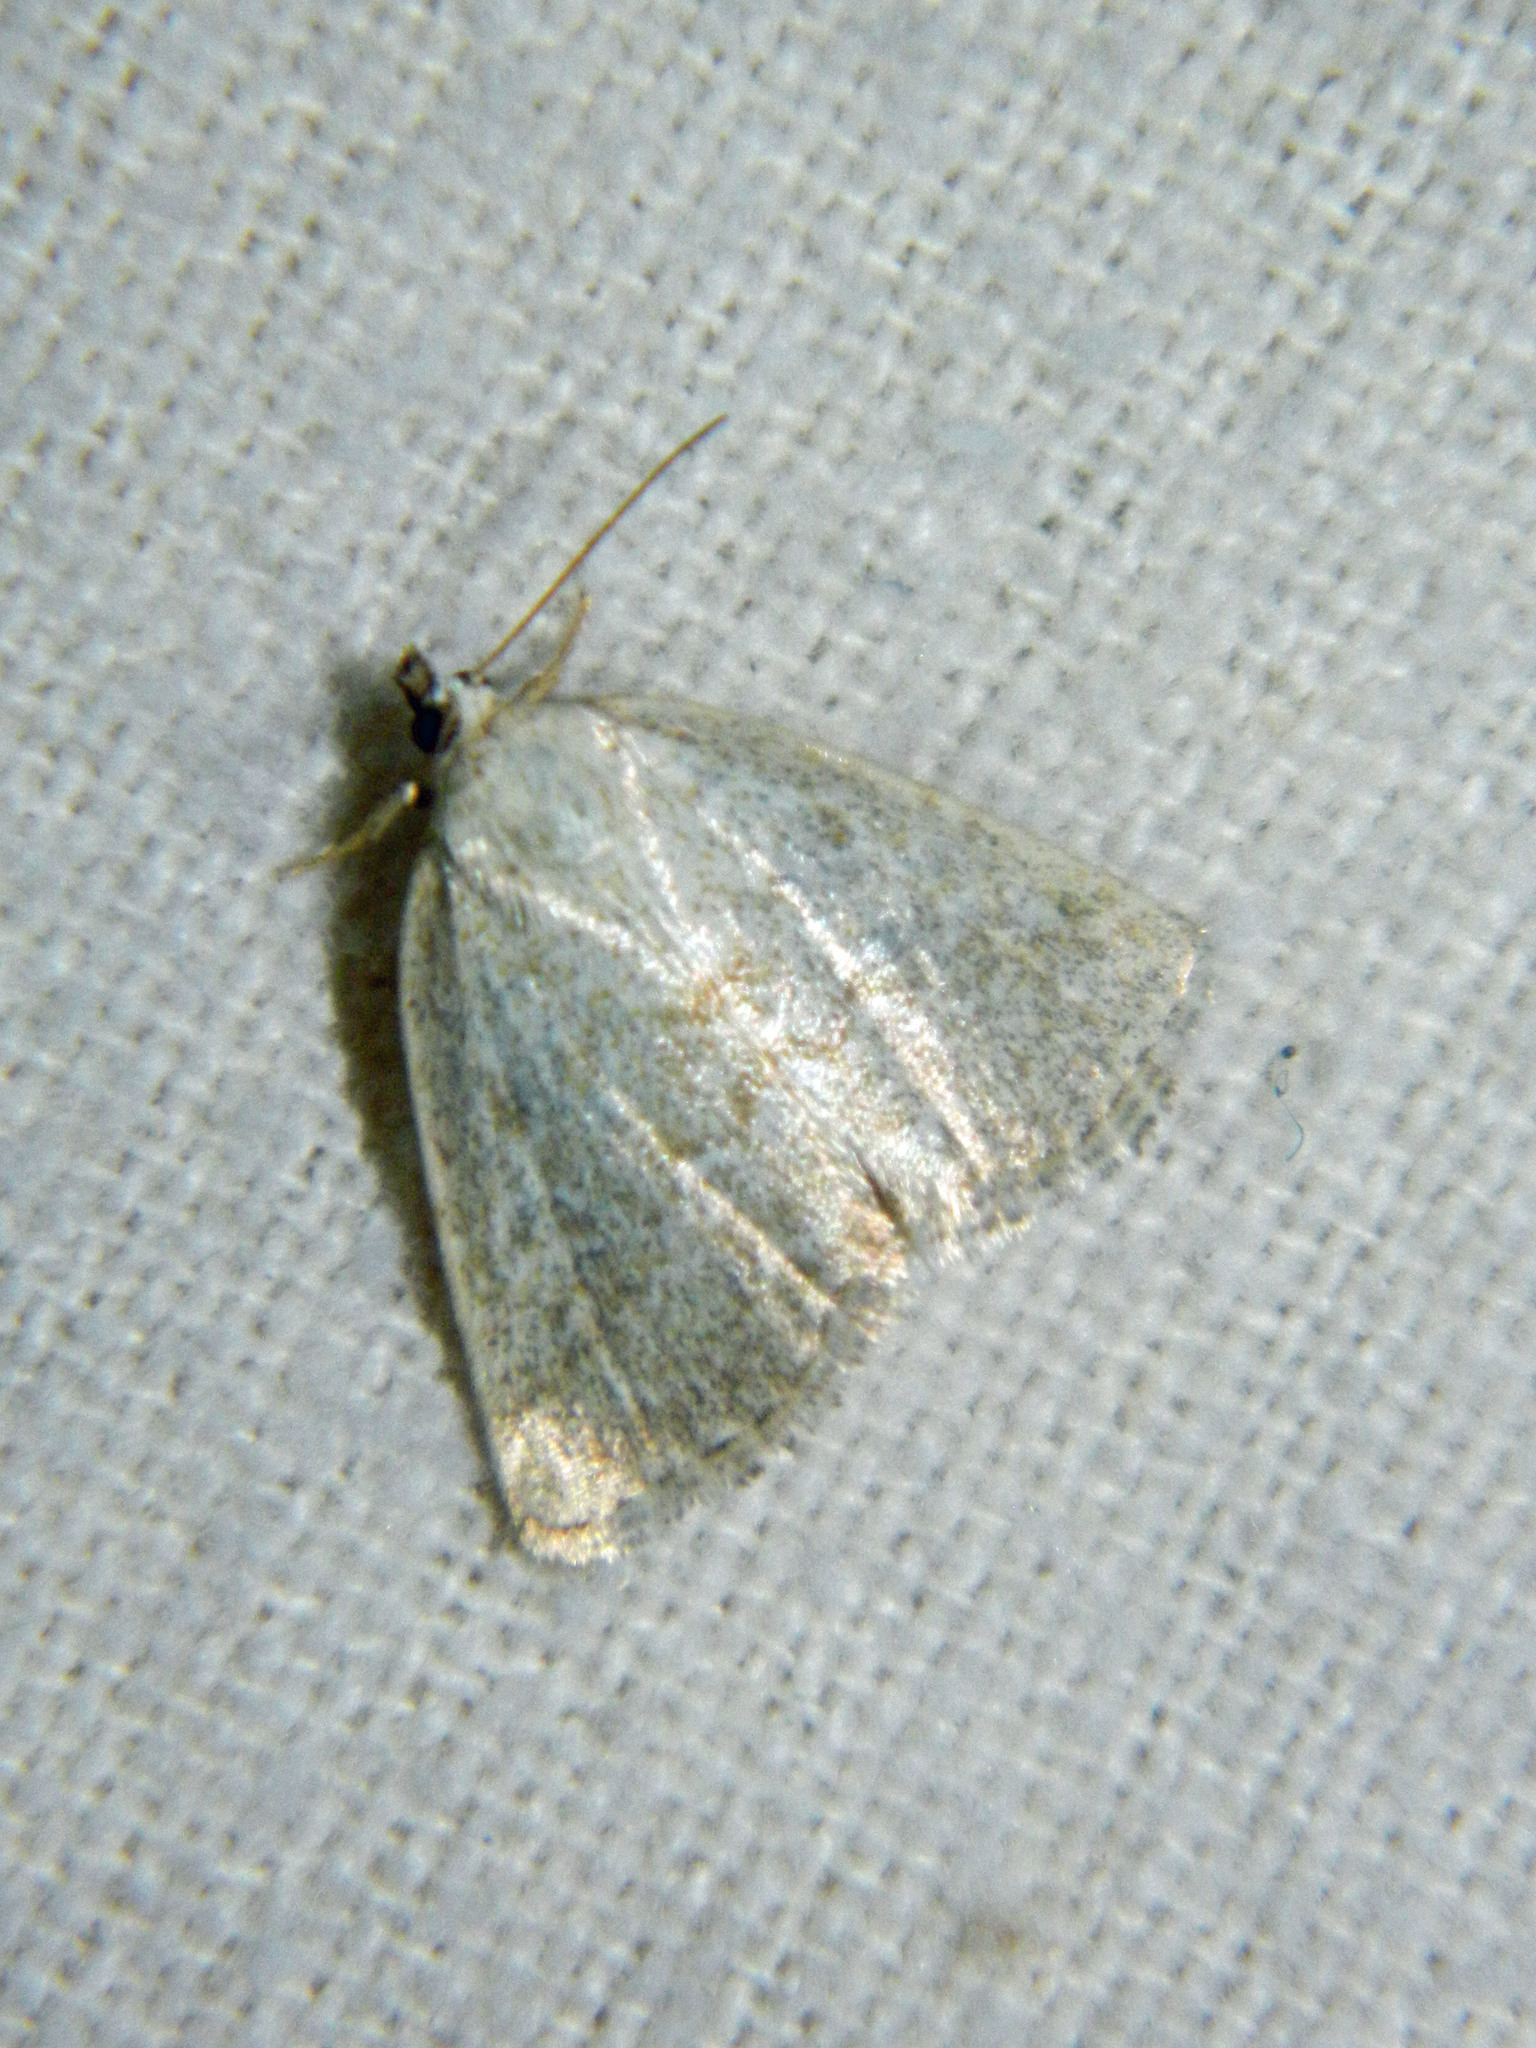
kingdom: Animalia
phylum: Arthropoda
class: Insecta
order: Lepidoptera
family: Noctuidae
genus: Protodeltote
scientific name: Protodeltote albidula
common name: Pale glyph
